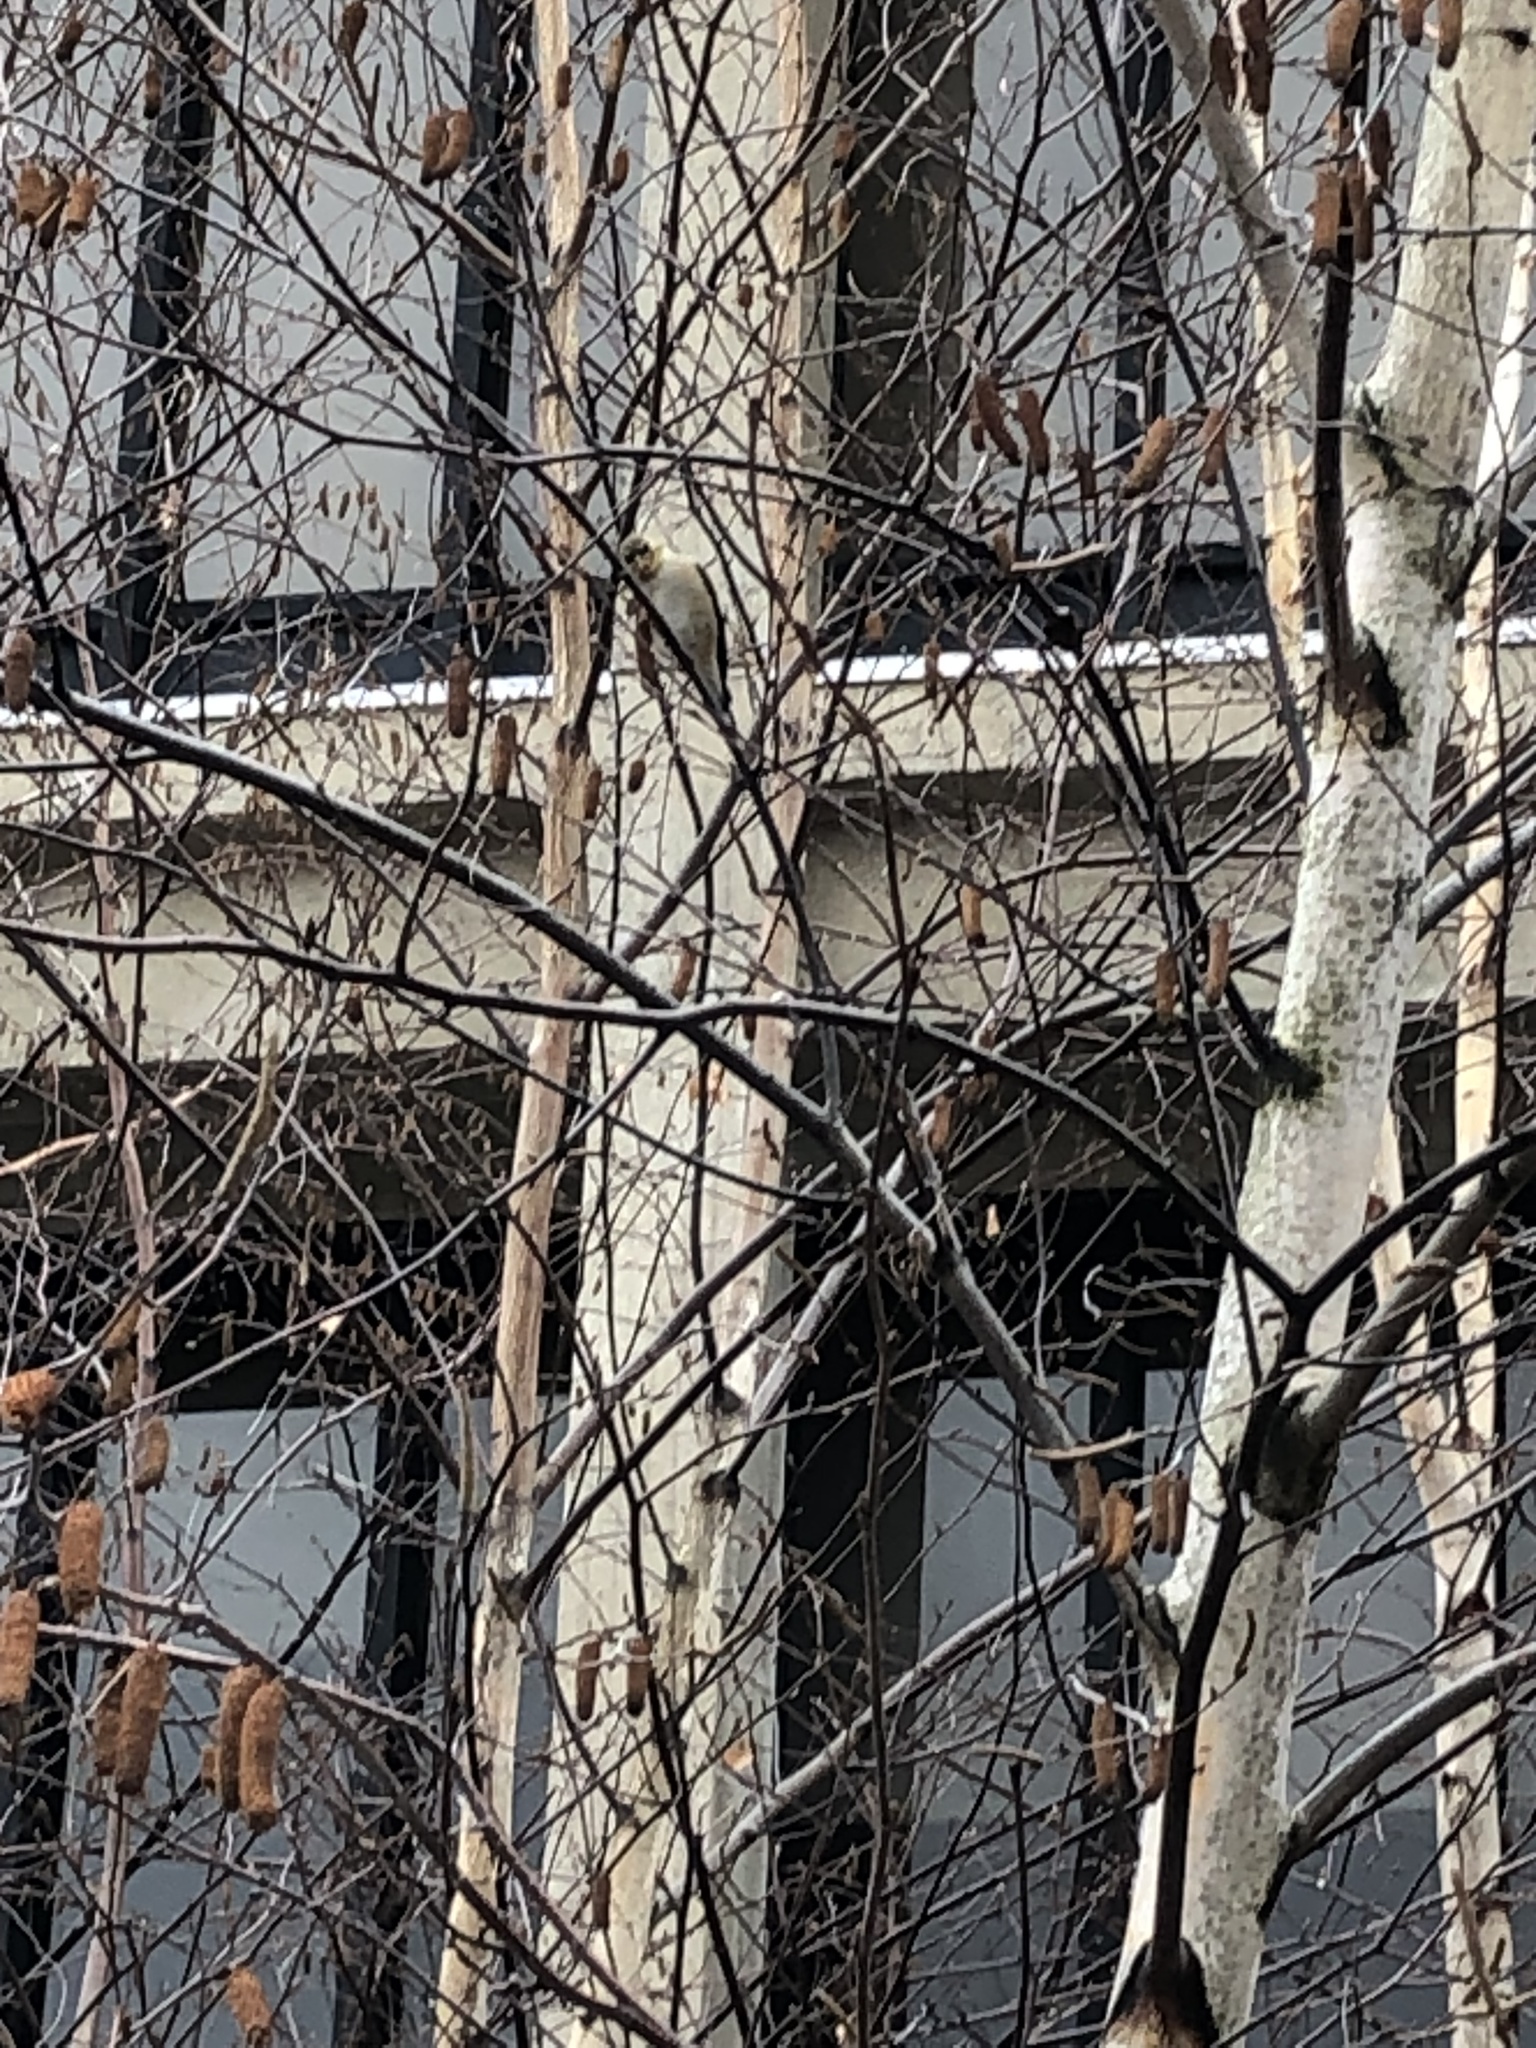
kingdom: Animalia
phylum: Chordata
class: Aves
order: Passeriformes
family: Fringillidae
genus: Spinus
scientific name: Spinus tristis
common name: American goldfinch
